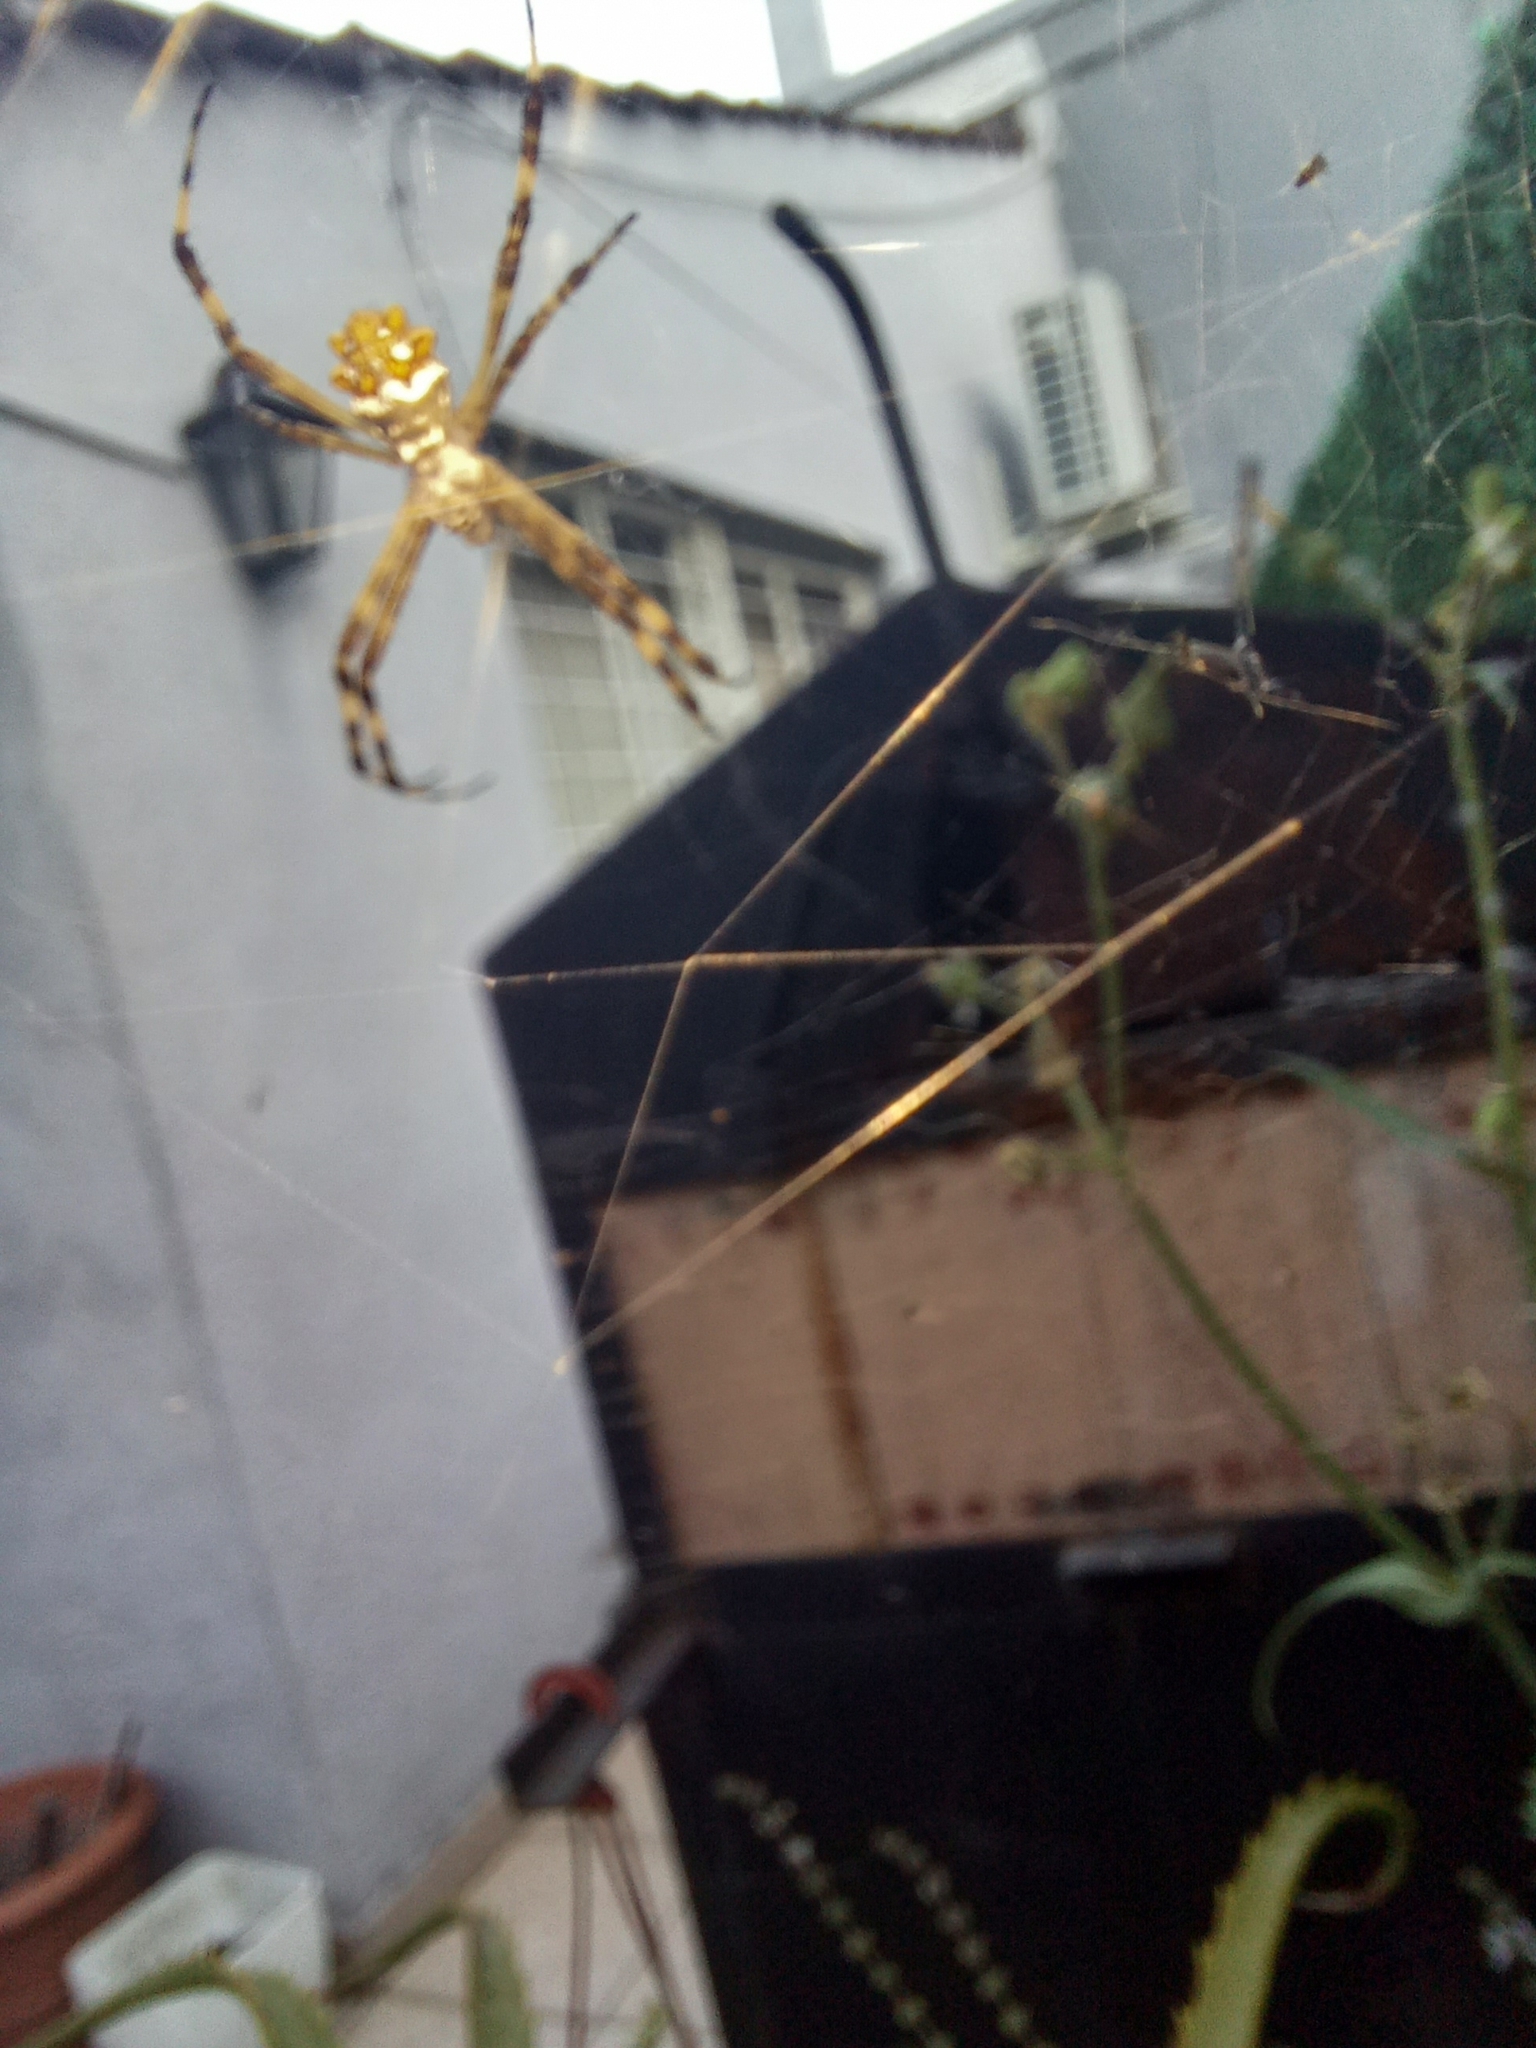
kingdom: Animalia
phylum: Arthropoda
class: Arachnida
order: Araneae
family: Araneidae
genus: Argiope
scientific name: Argiope argentata
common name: Orb weavers
